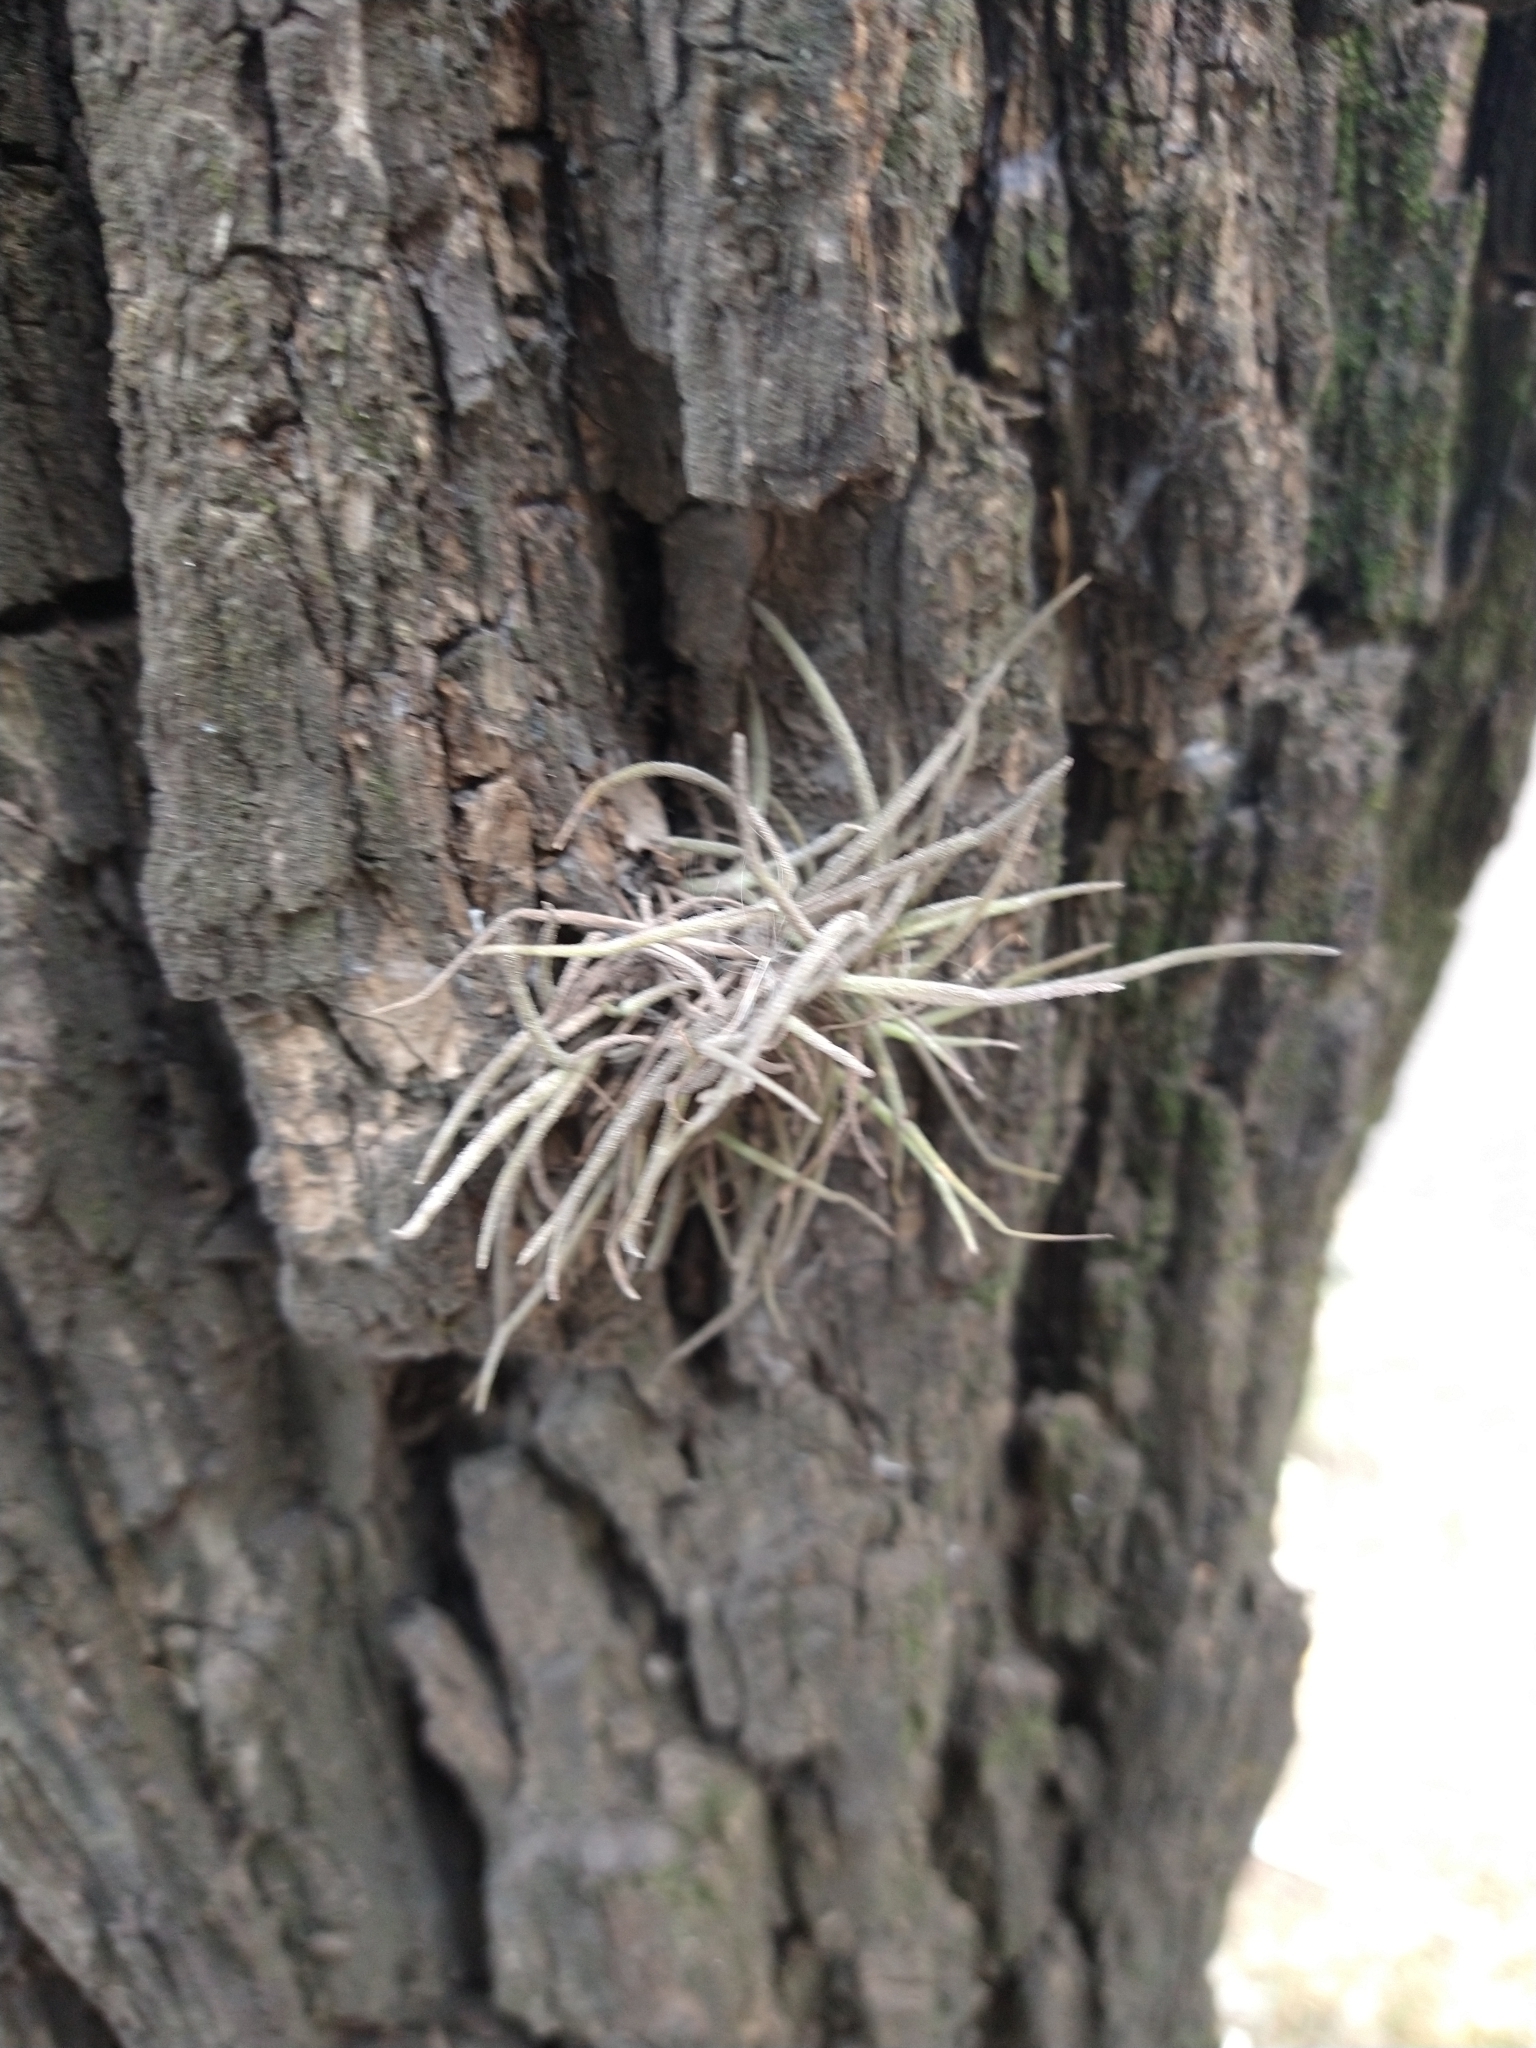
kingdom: Plantae
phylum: Tracheophyta
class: Liliopsida
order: Poales
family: Bromeliaceae
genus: Tillandsia
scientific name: Tillandsia recurvata
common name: Small ballmoss
